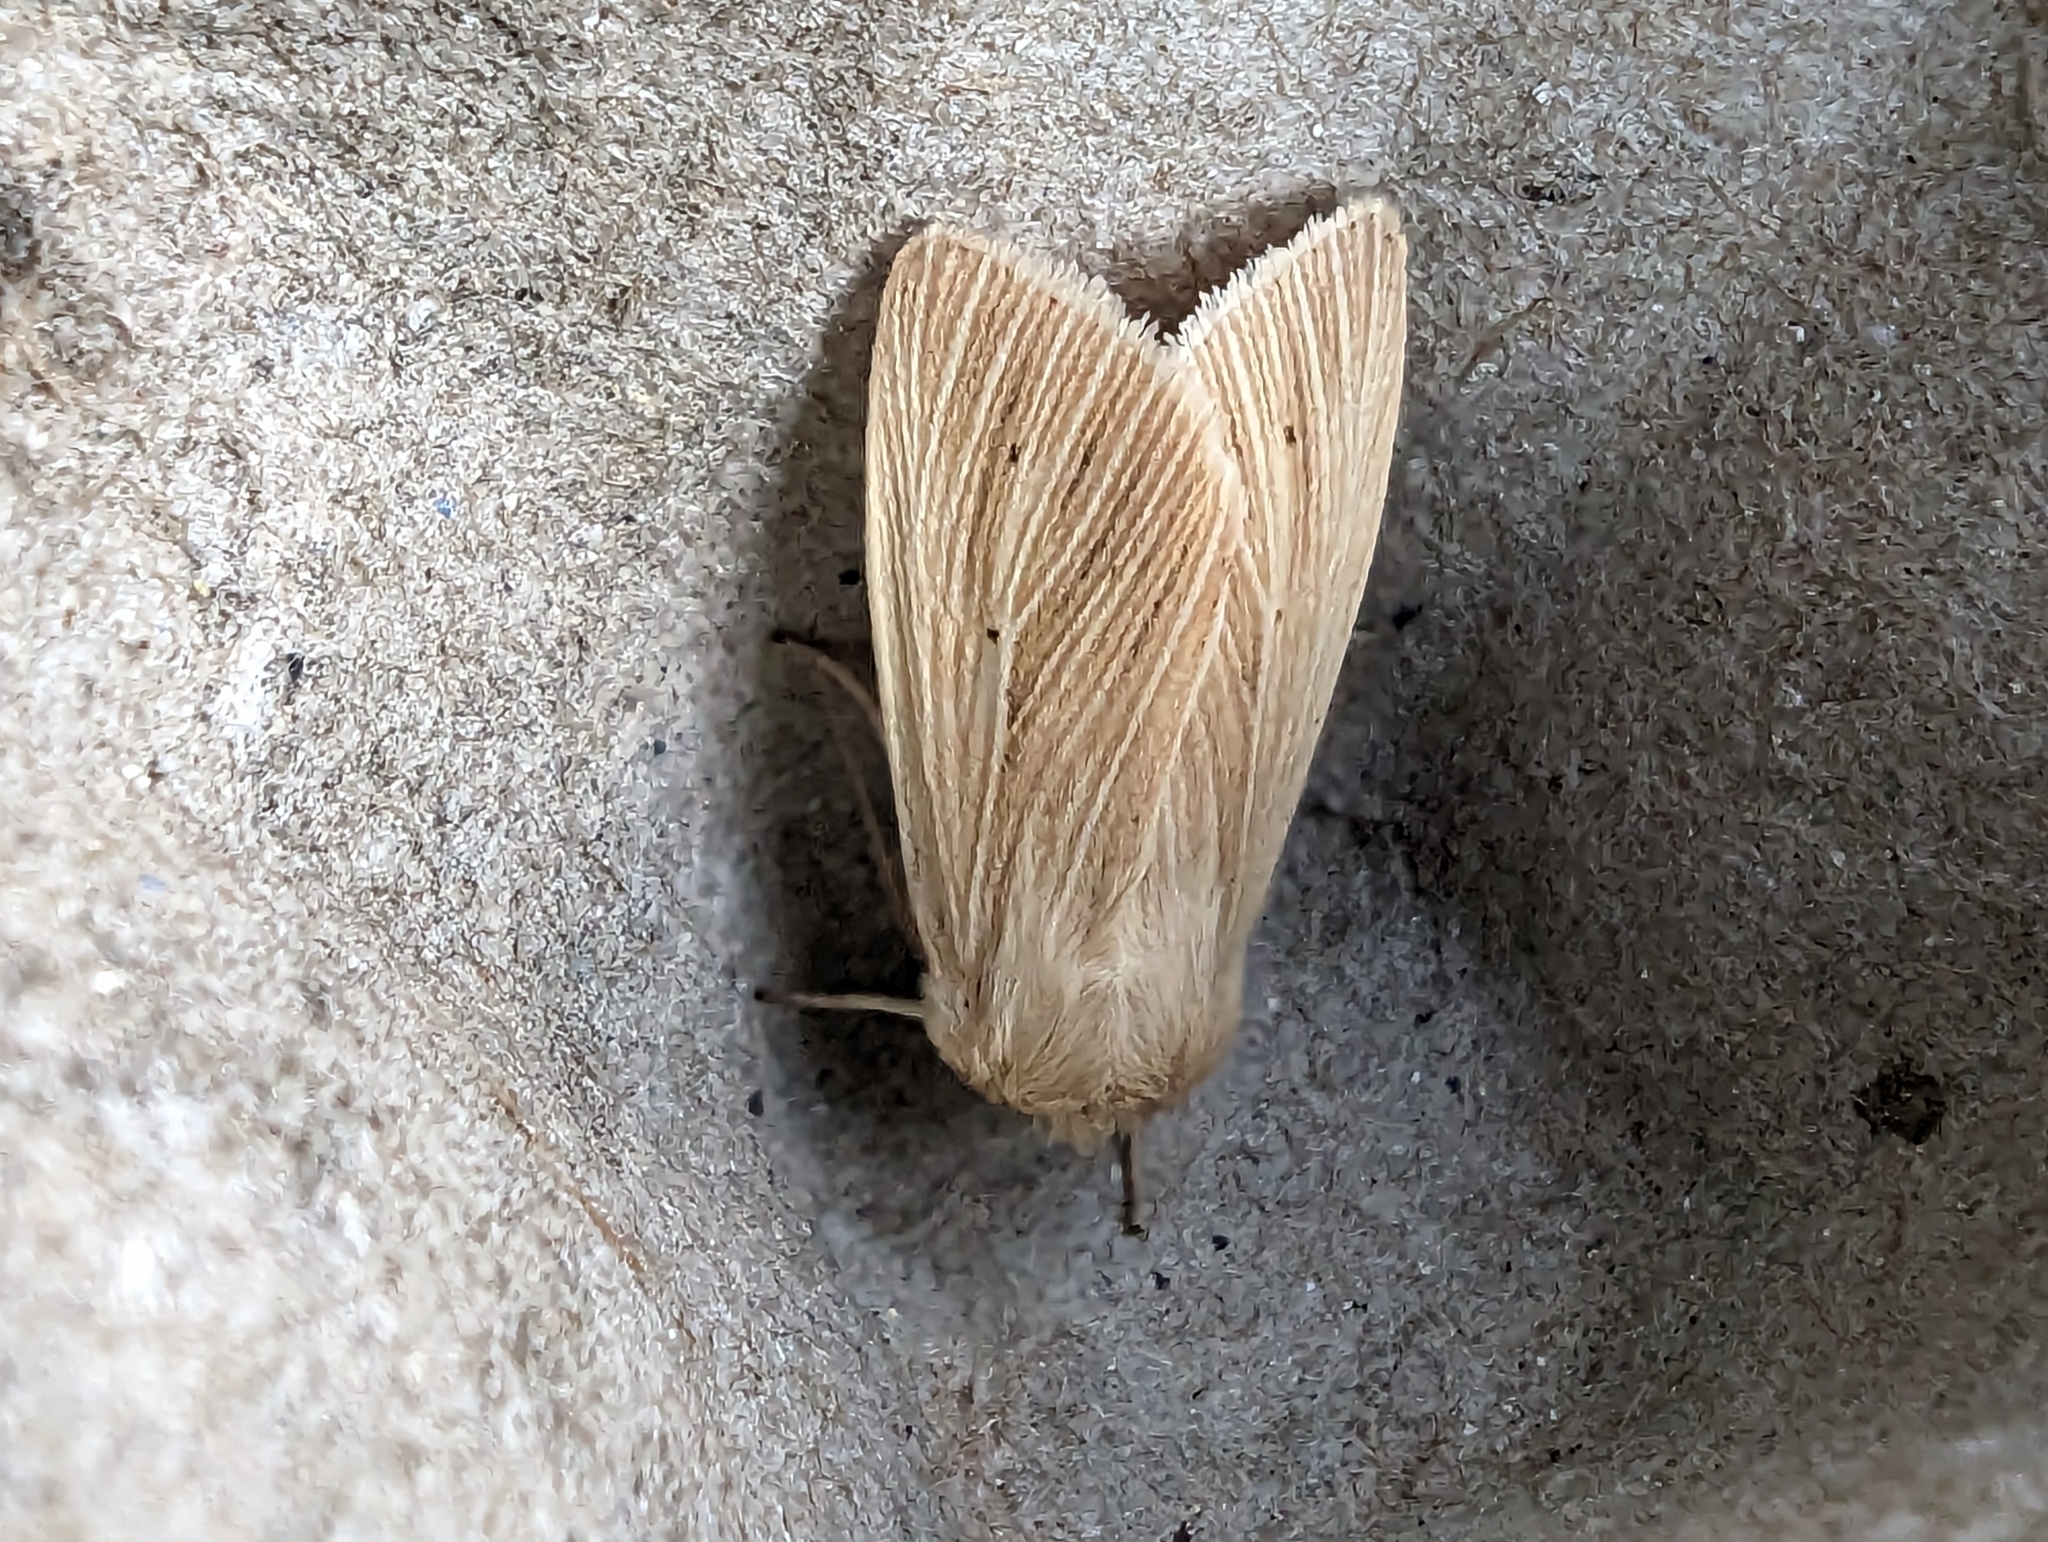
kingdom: Animalia
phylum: Arthropoda
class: Insecta
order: Lepidoptera
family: Noctuidae
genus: Mythimna
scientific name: Mythimna pallens
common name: Common wainscot
